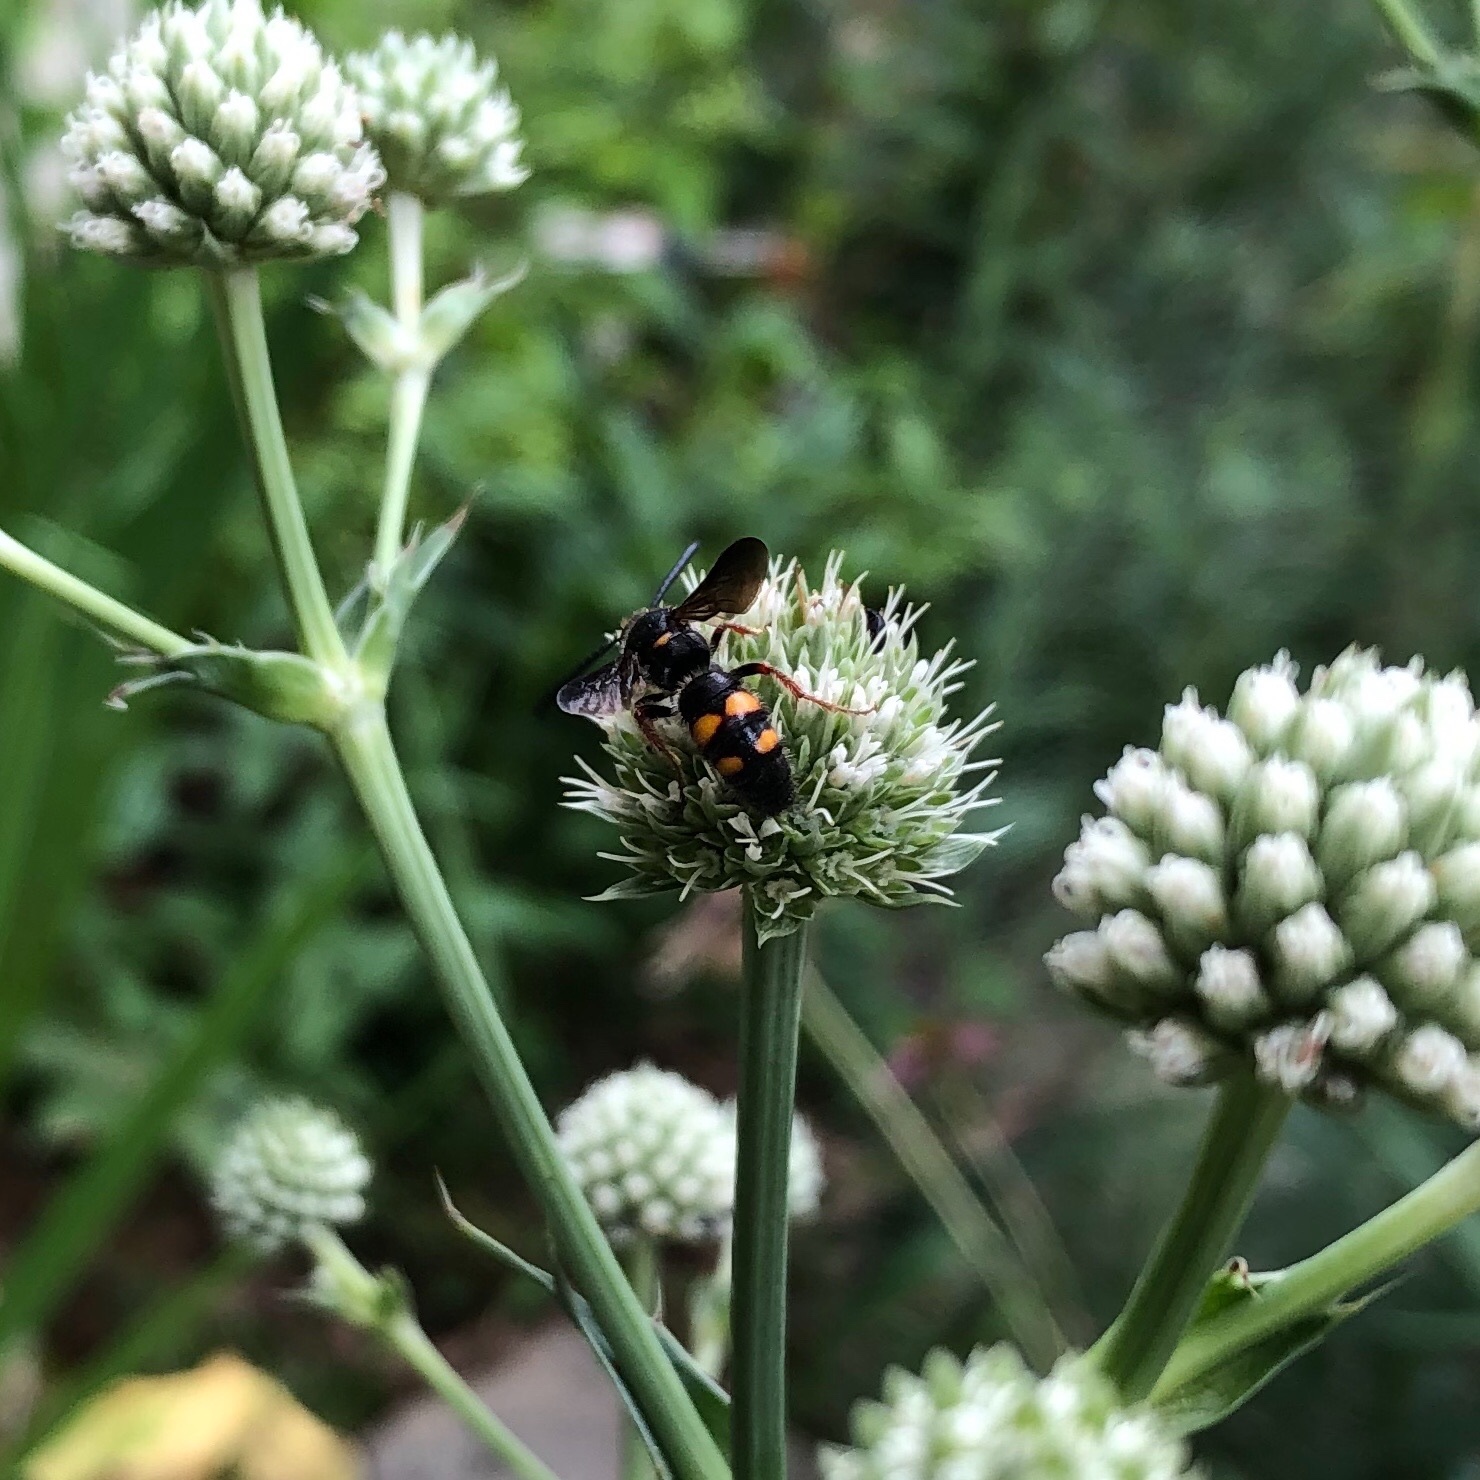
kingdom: Animalia
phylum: Arthropoda
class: Insecta
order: Hymenoptera
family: Scoliidae
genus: Scolia
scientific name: Scolia nobilitata
